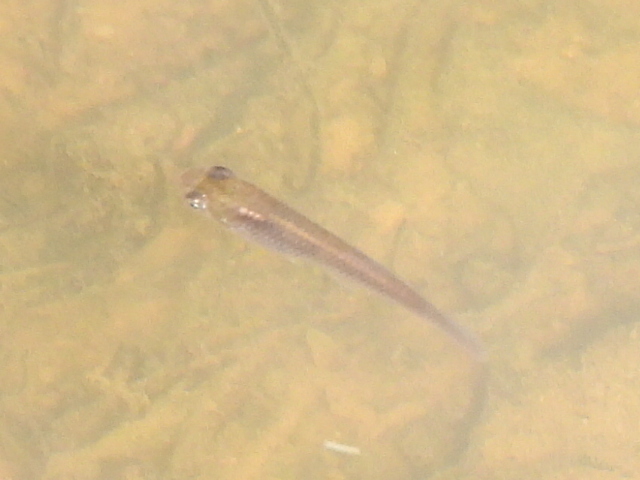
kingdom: Animalia
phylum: Chordata
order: Cyprinodontiformes
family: Poeciliidae
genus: Gambusia
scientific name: Gambusia affinis
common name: Mosquitofish
